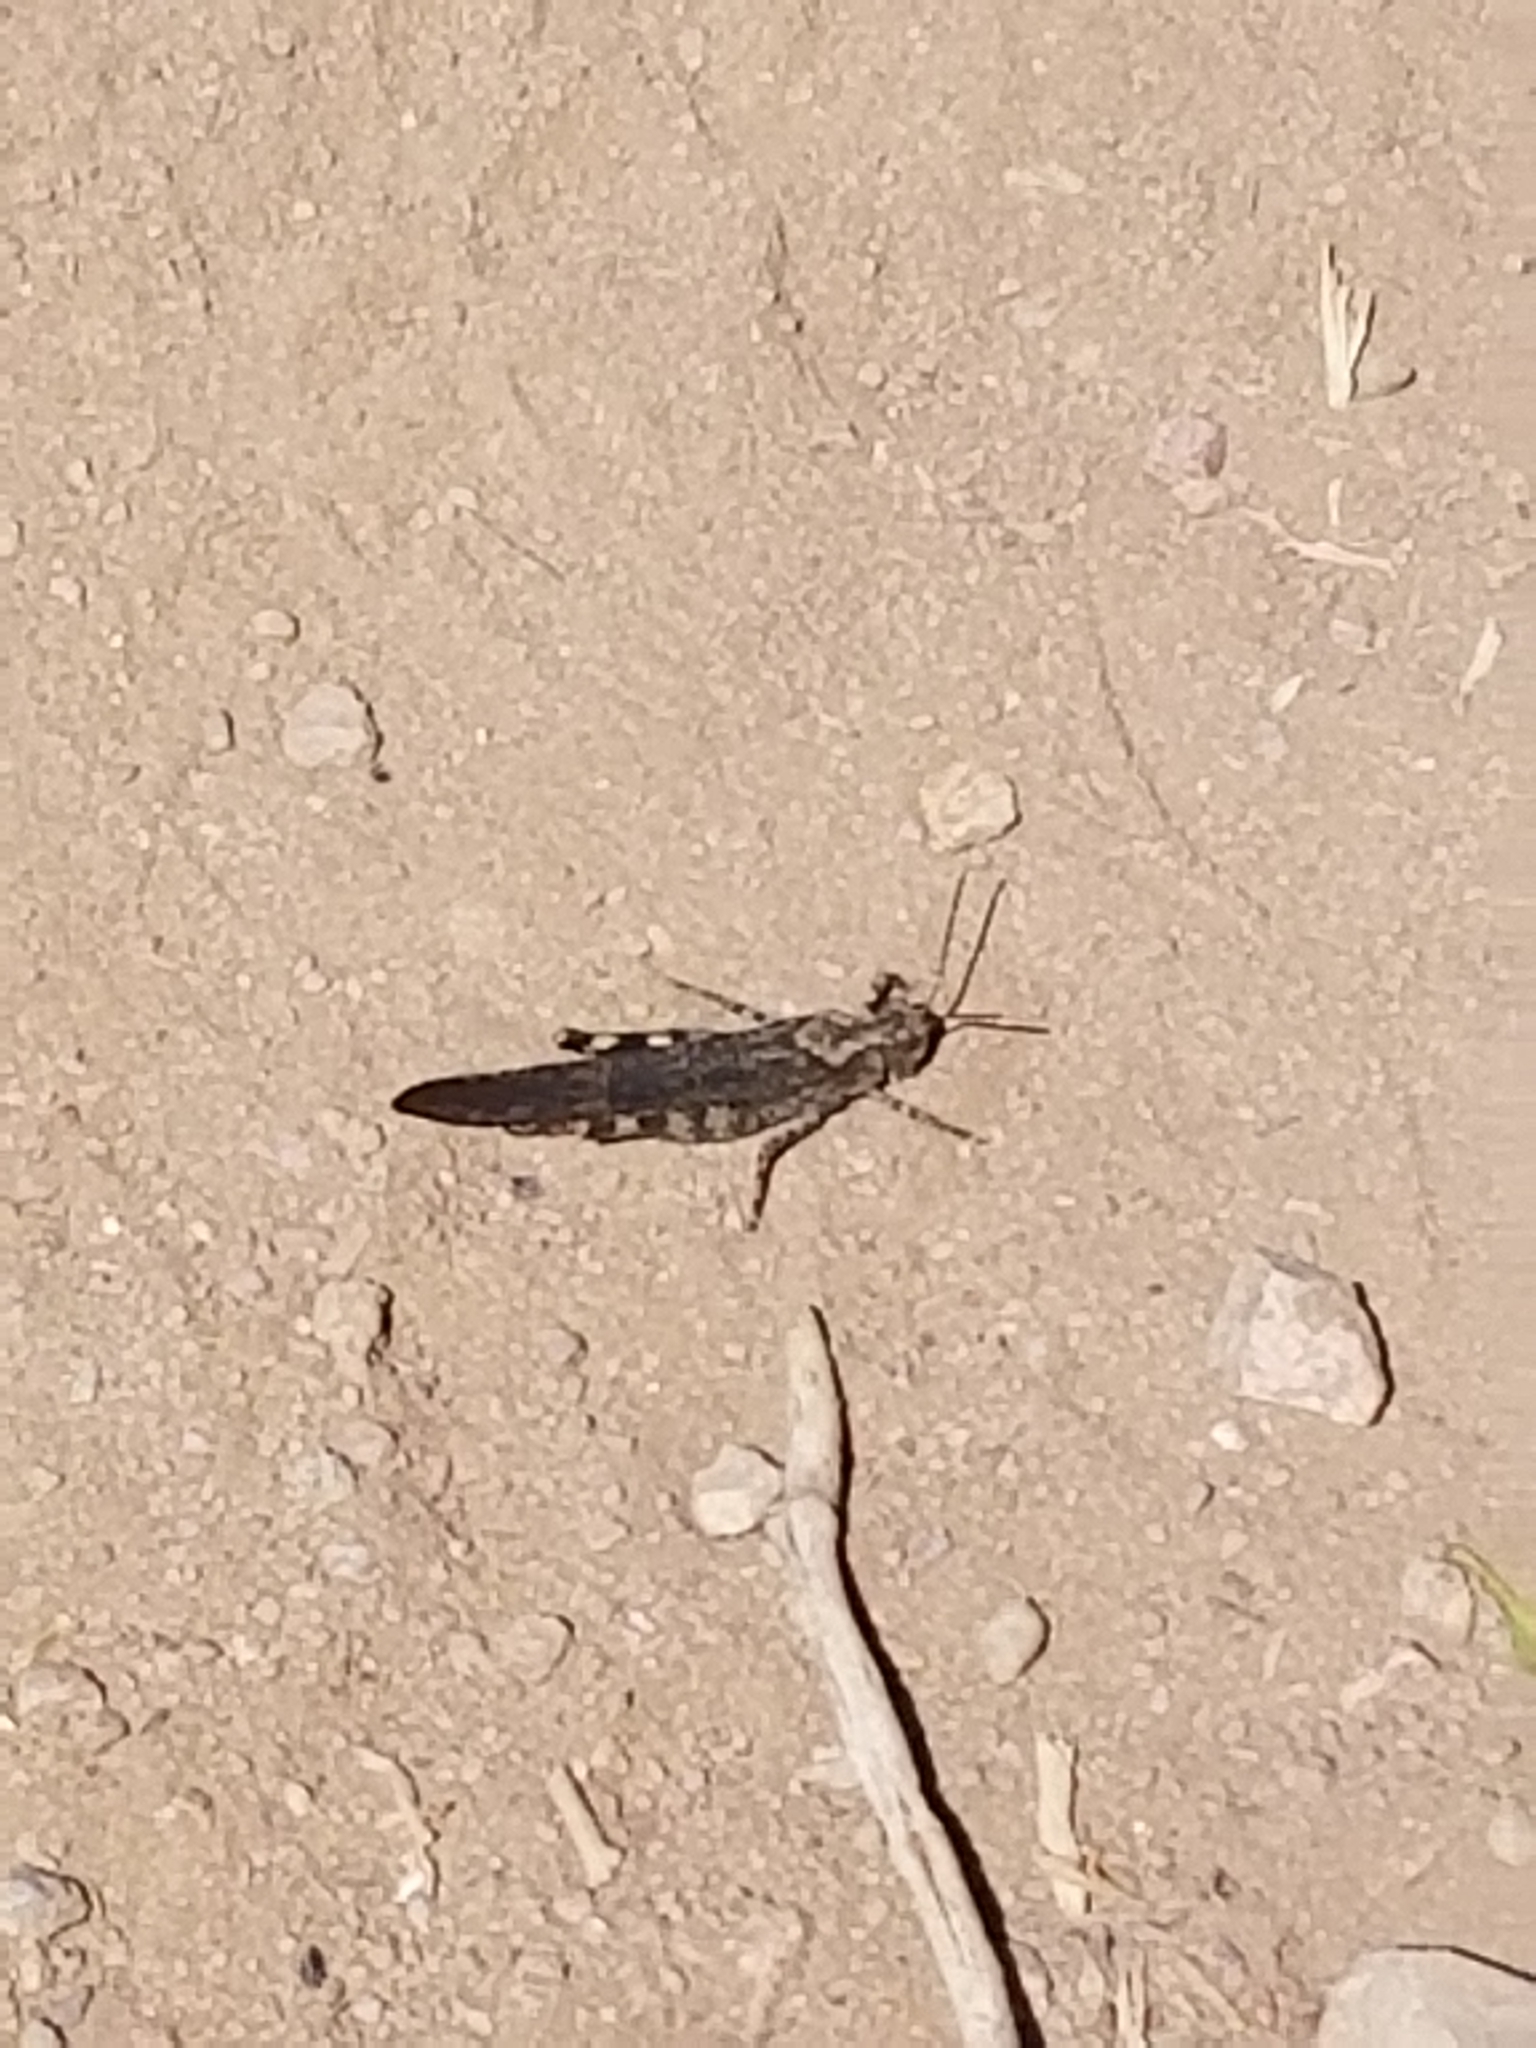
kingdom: Animalia
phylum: Arthropoda
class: Insecta
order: Orthoptera
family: Acrididae
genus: Trimerotropis
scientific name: Trimerotropis verruculata
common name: Crackling forest grasshopper
